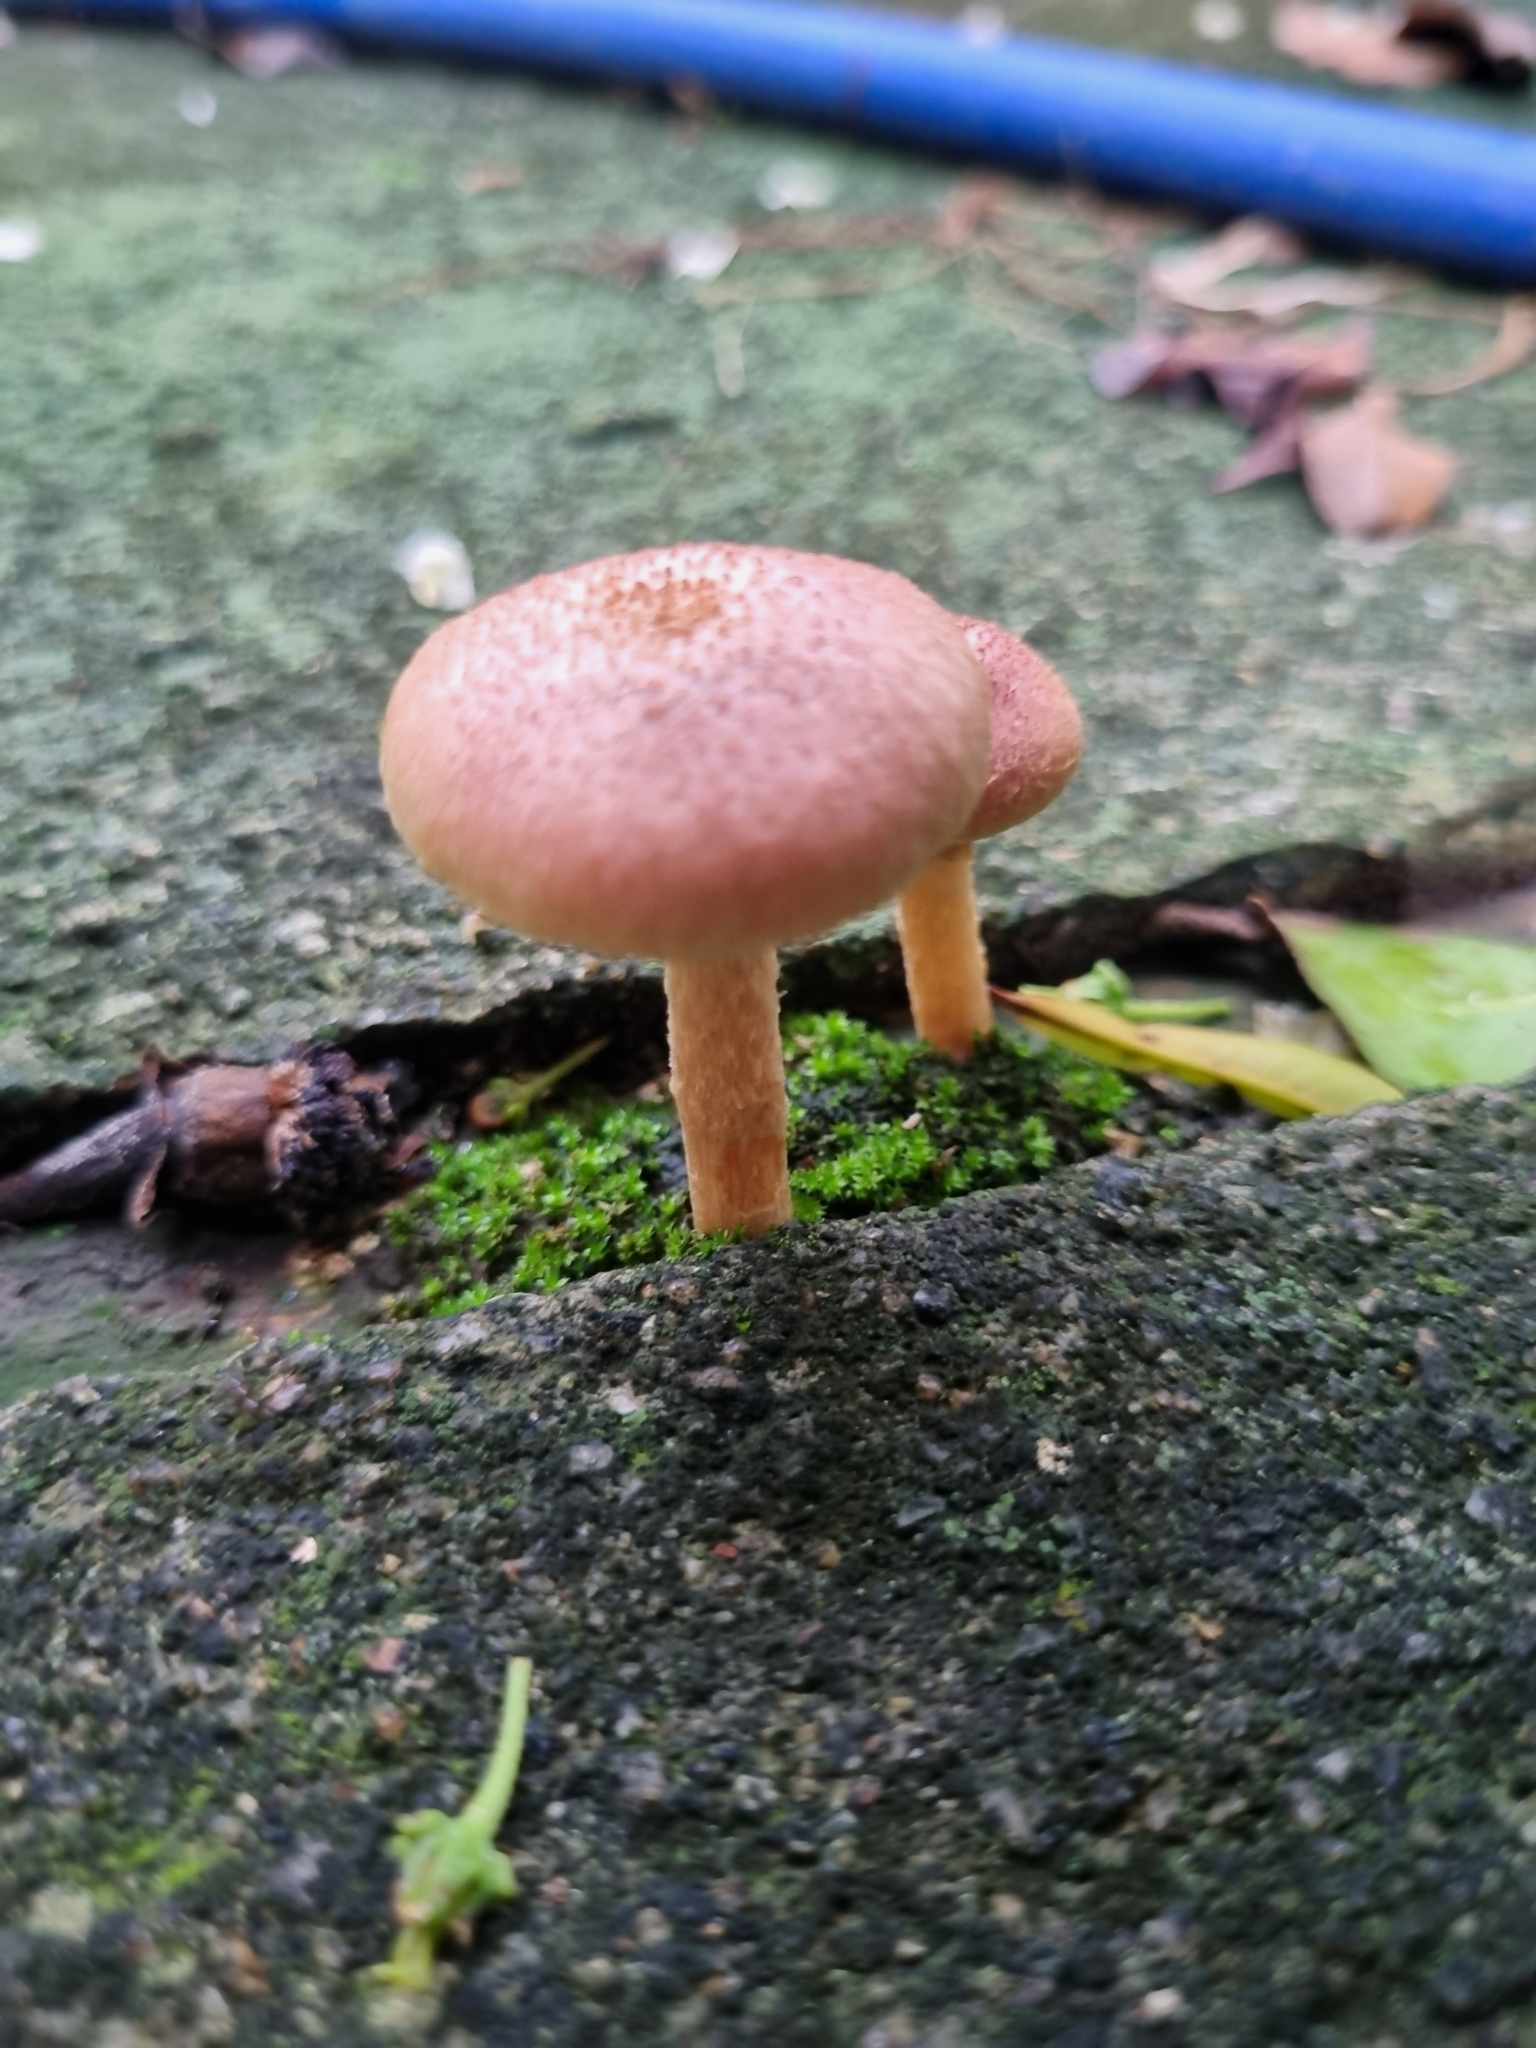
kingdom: Fungi
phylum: Basidiomycota
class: Agaricomycetes
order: Agaricales
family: Hymenogastraceae
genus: Gymnopilus
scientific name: Gymnopilus luteofolius
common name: Yellow-gilled gymnopilus
